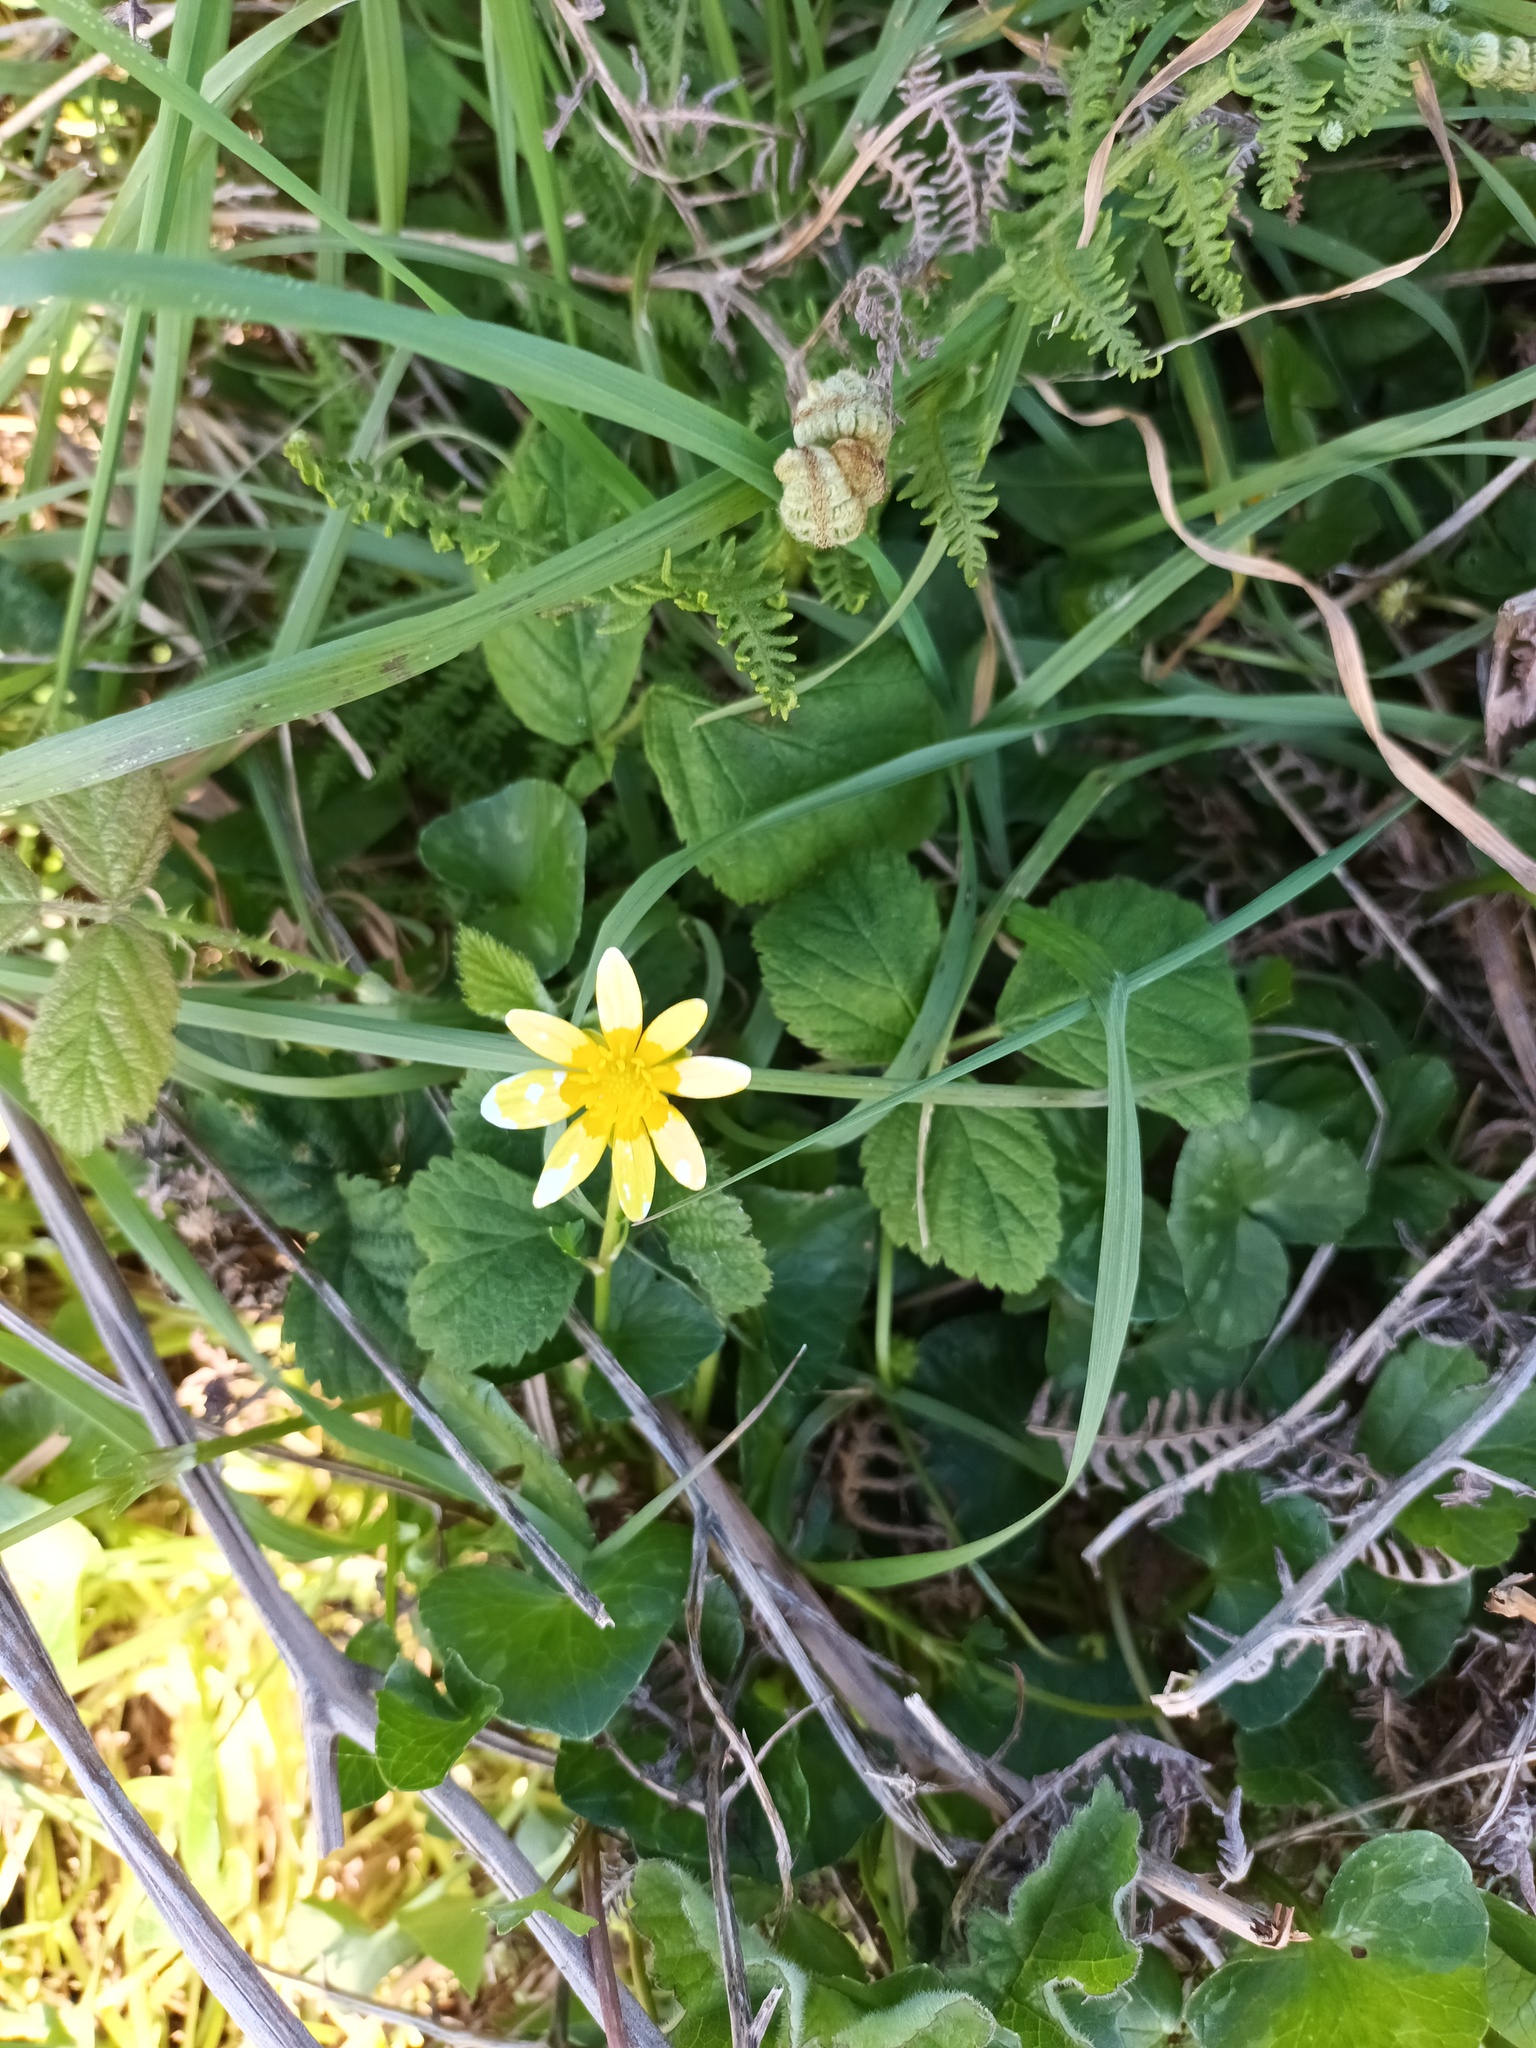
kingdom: Plantae
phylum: Tracheophyta
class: Magnoliopsida
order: Ranunculales
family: Ranunculaceae
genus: Ficaria
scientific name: Ficaria verna
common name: Lesser celandine
